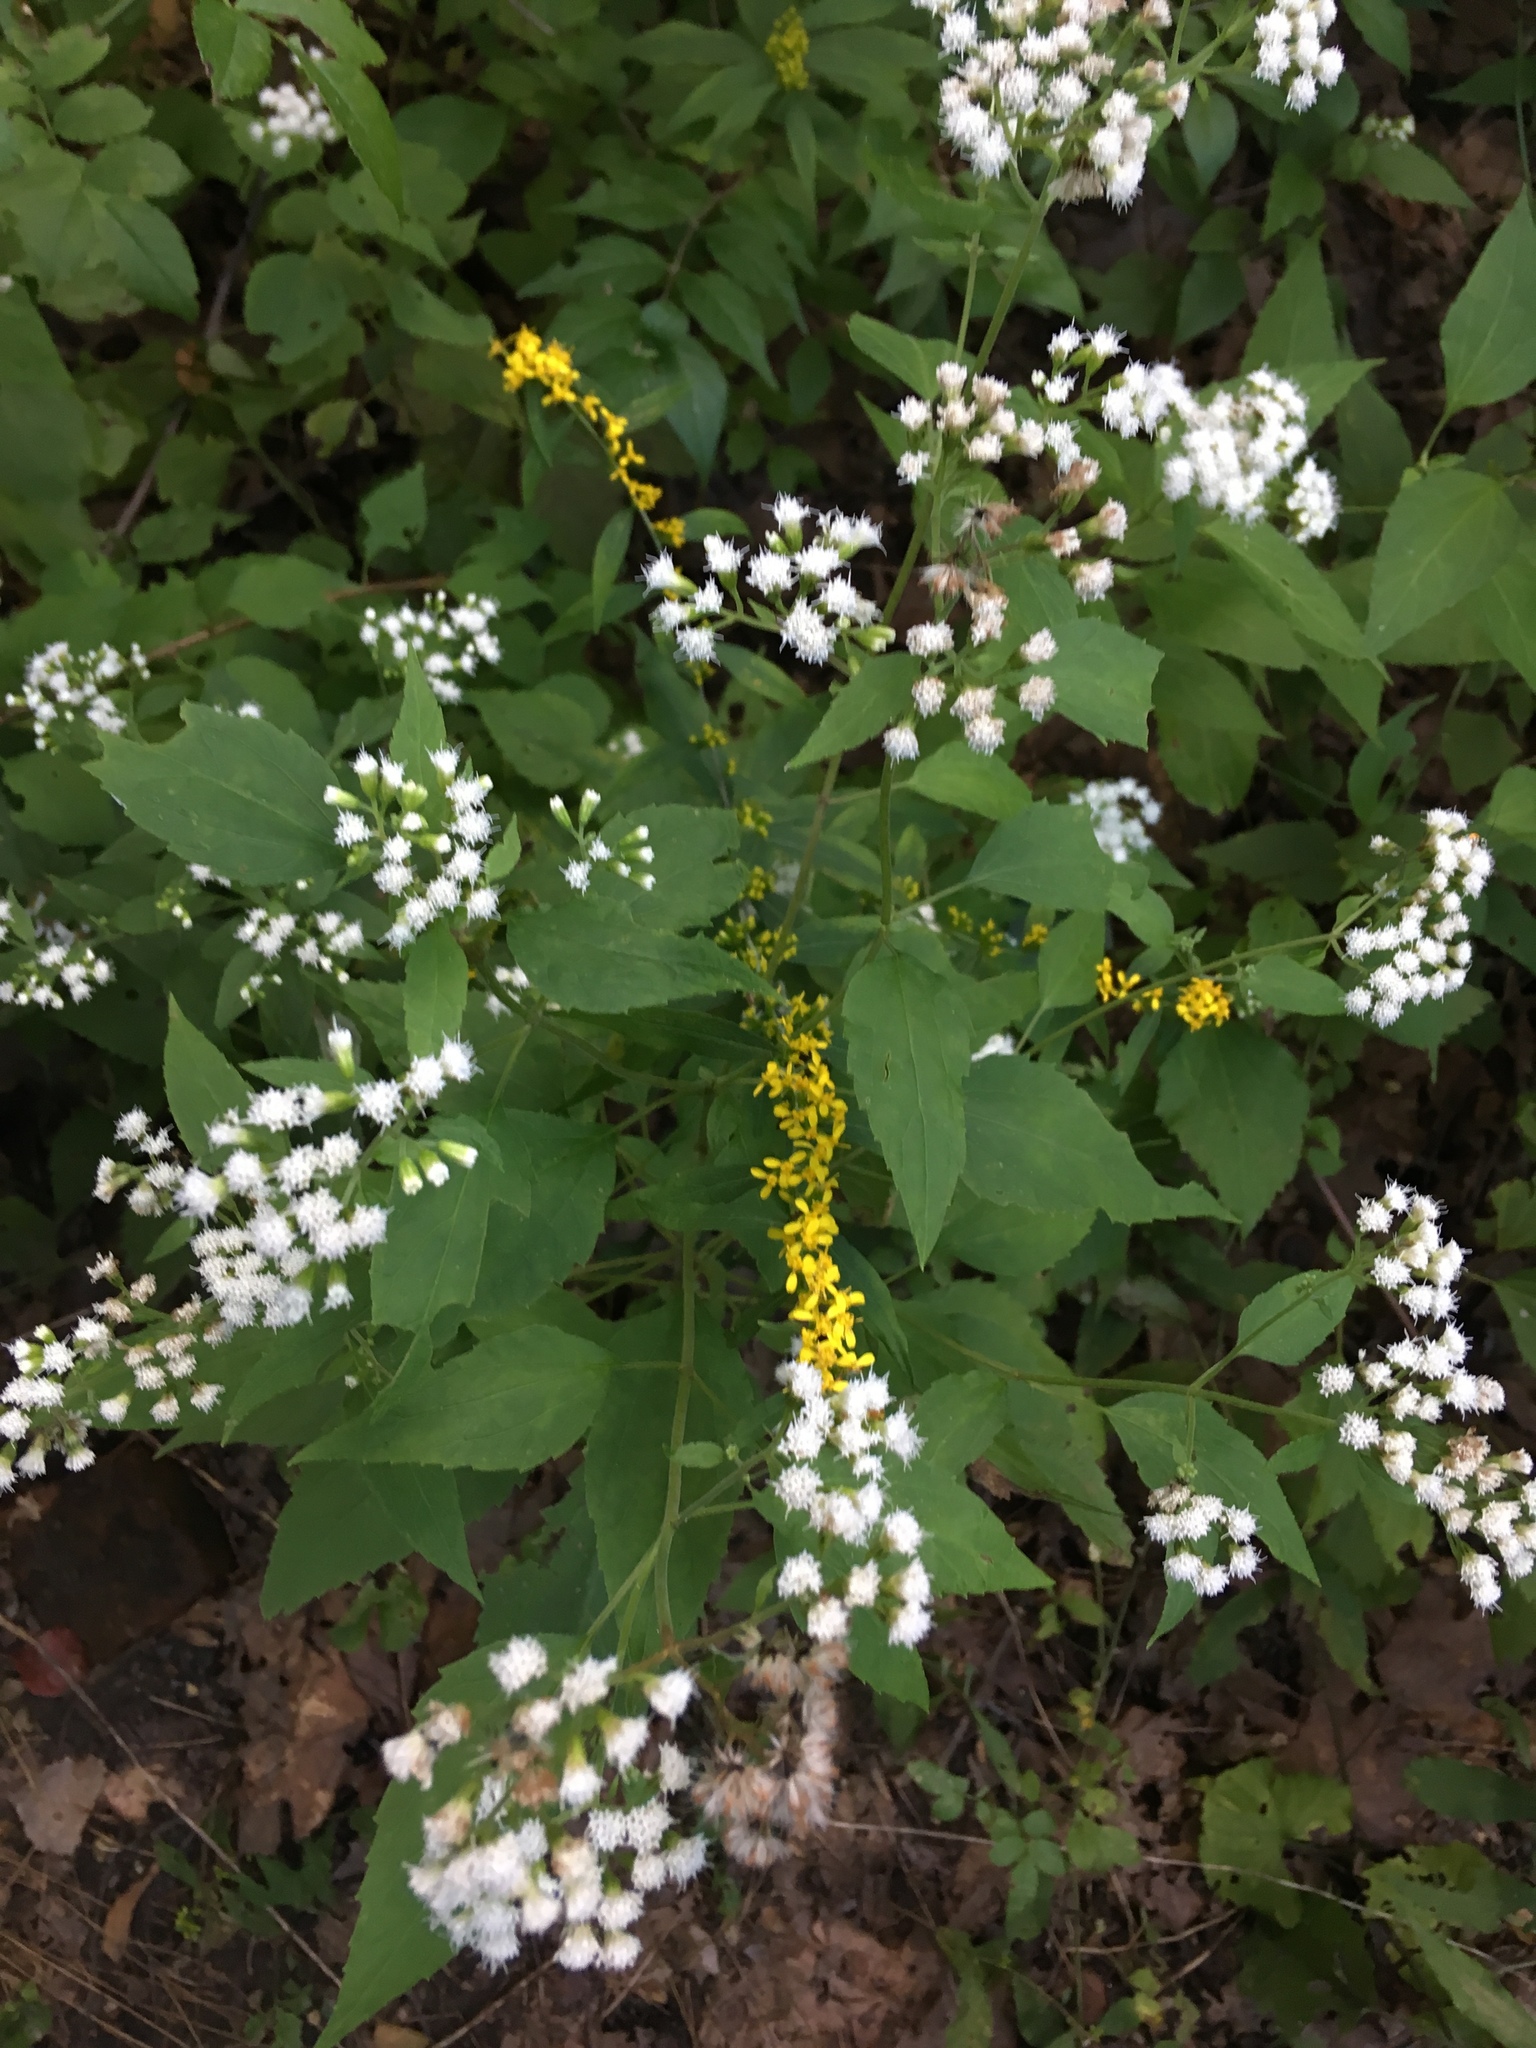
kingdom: Plantae
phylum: Tracheophyta
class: Magnoliopsida
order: Asterales
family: Asteraceae
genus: Ageratina
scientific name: Ageratina altissima
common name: White snakeroot
